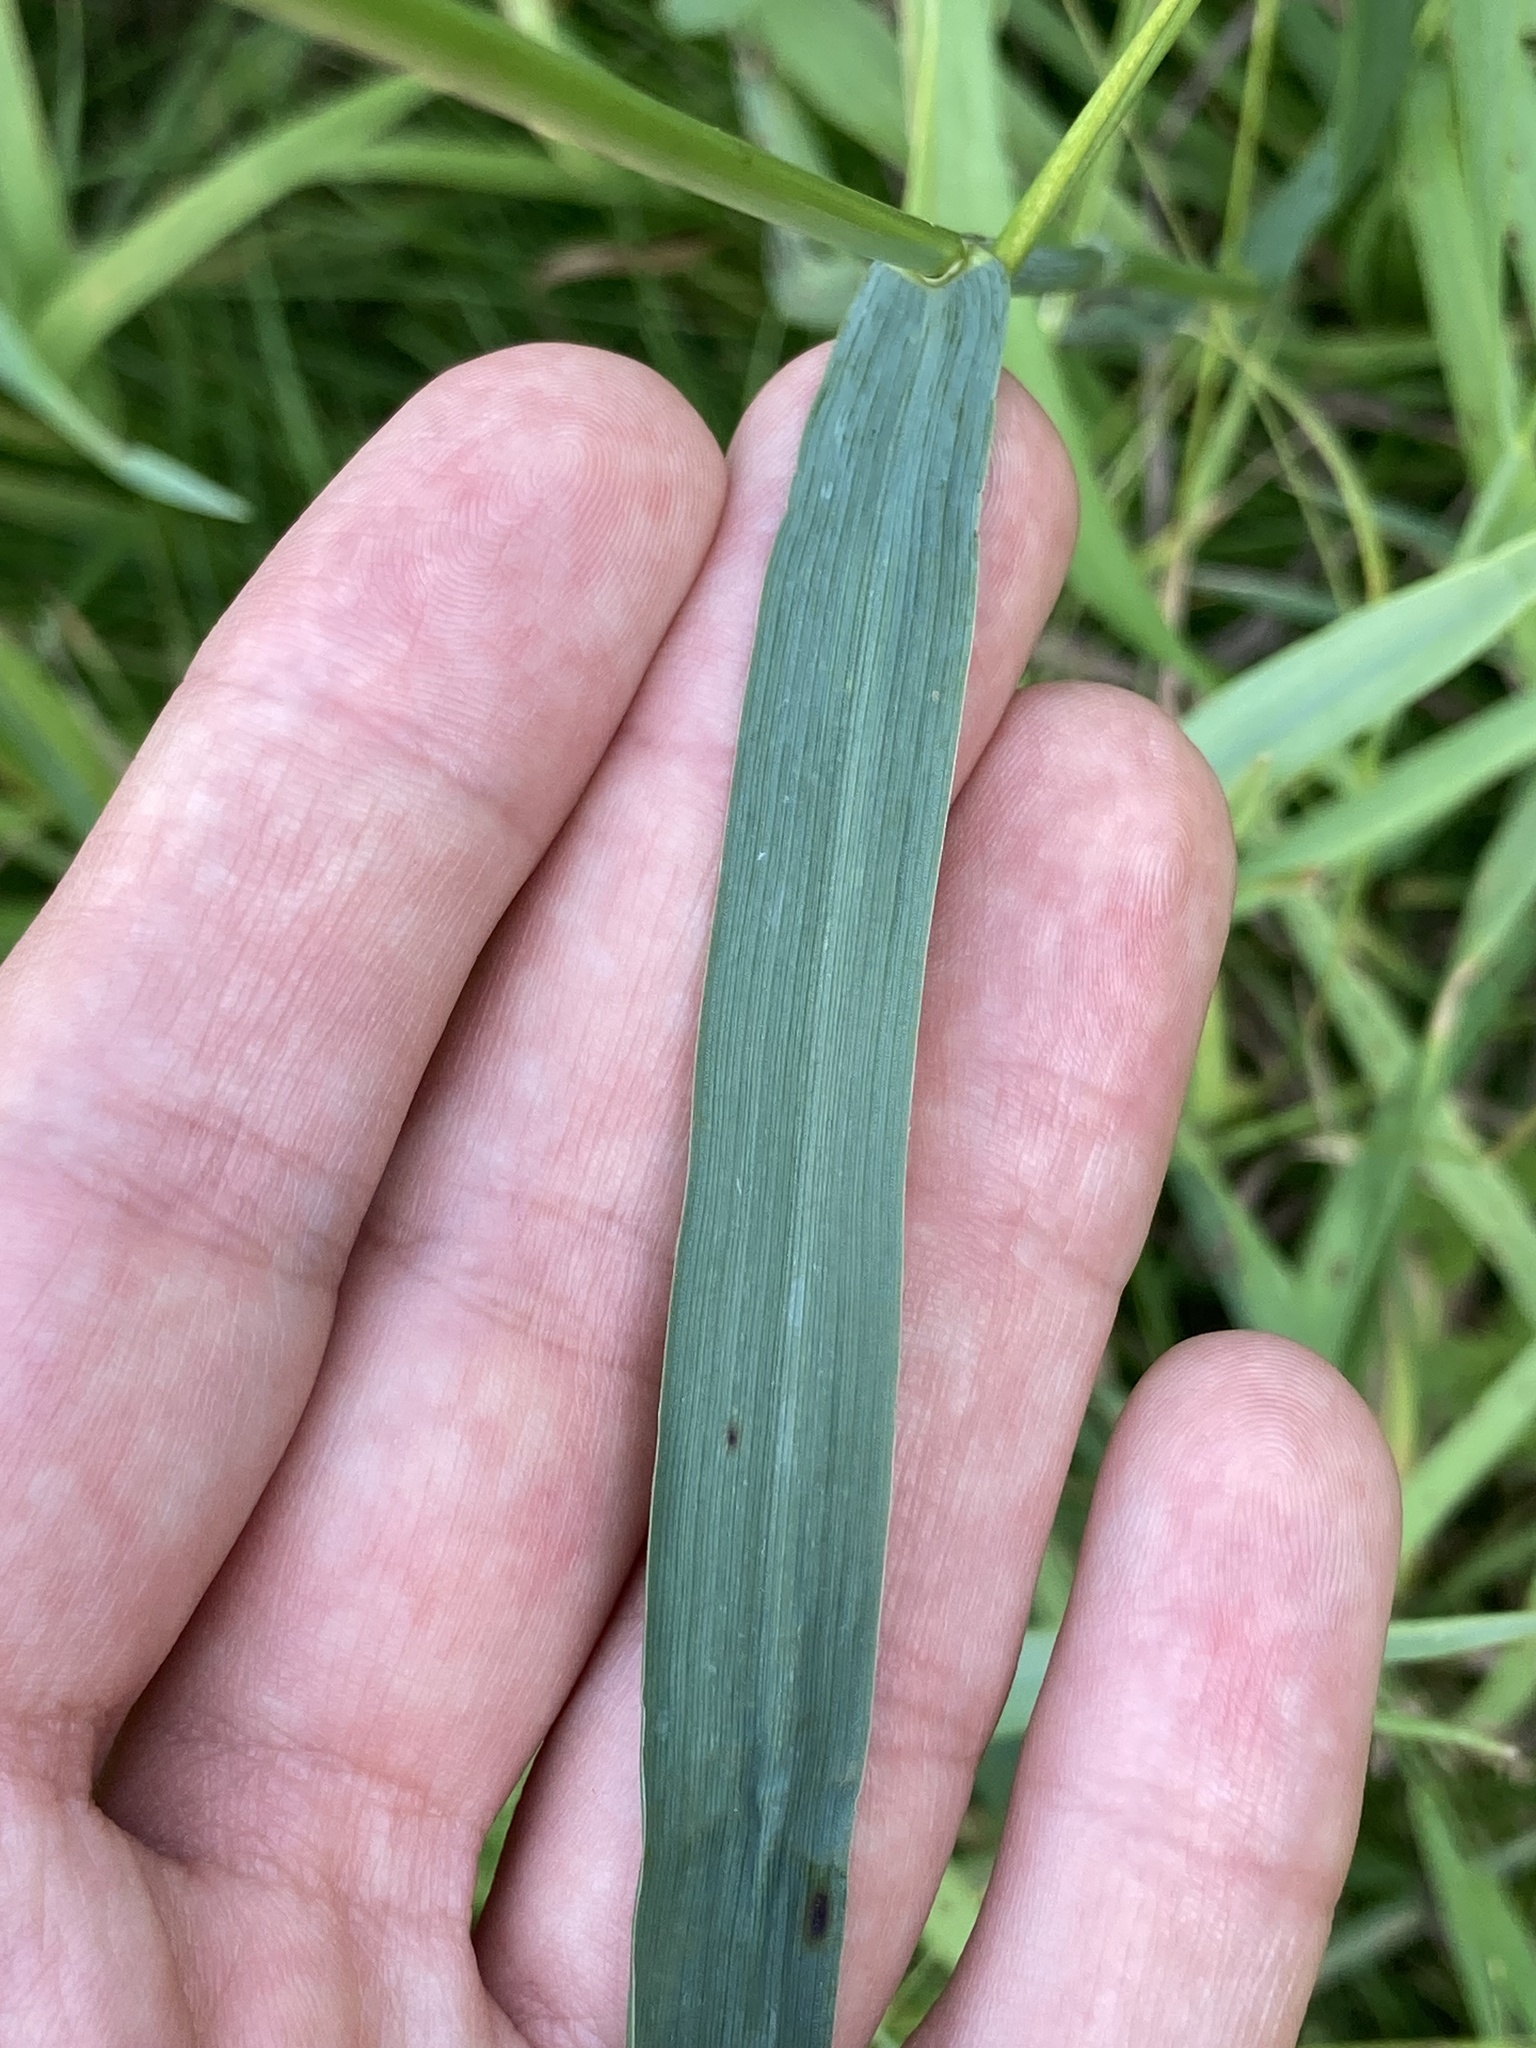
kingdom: Plantae
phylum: Tracheophyta
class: Liliopsida
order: Poales
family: Poaceae
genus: Bromus
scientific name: Bromus inermis
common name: Smooth brome
